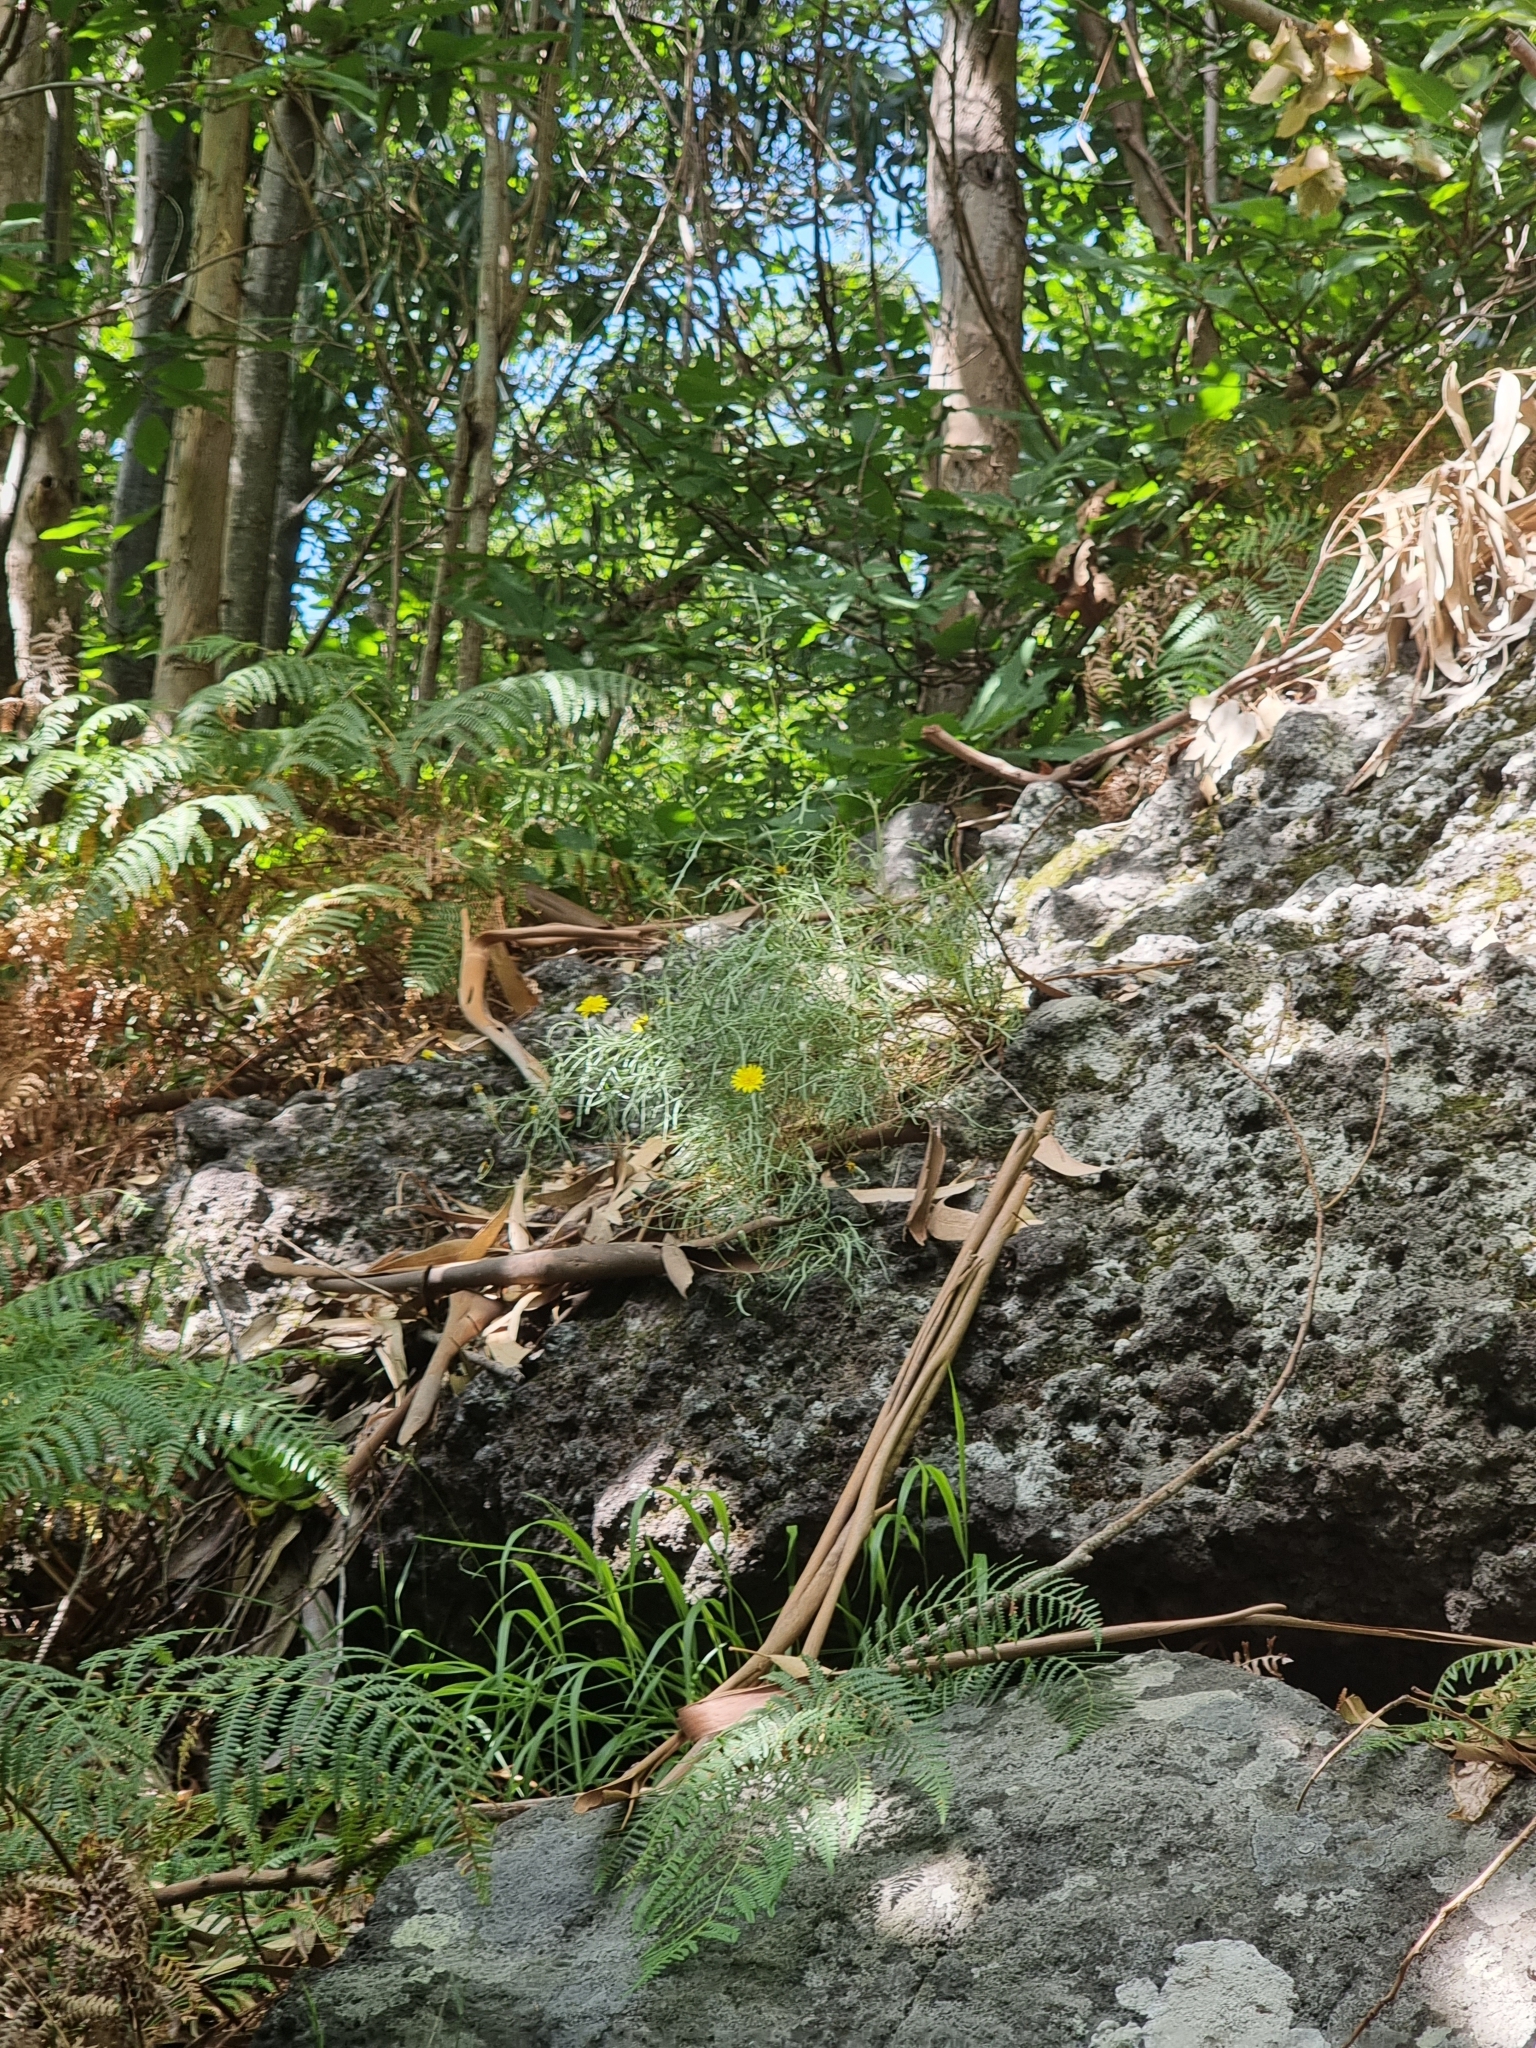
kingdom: Plantae
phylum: Tracheophyta
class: Magnoliopsida
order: Asterales
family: Asteraceae
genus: Tolpis
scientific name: Tolpis succulenta
